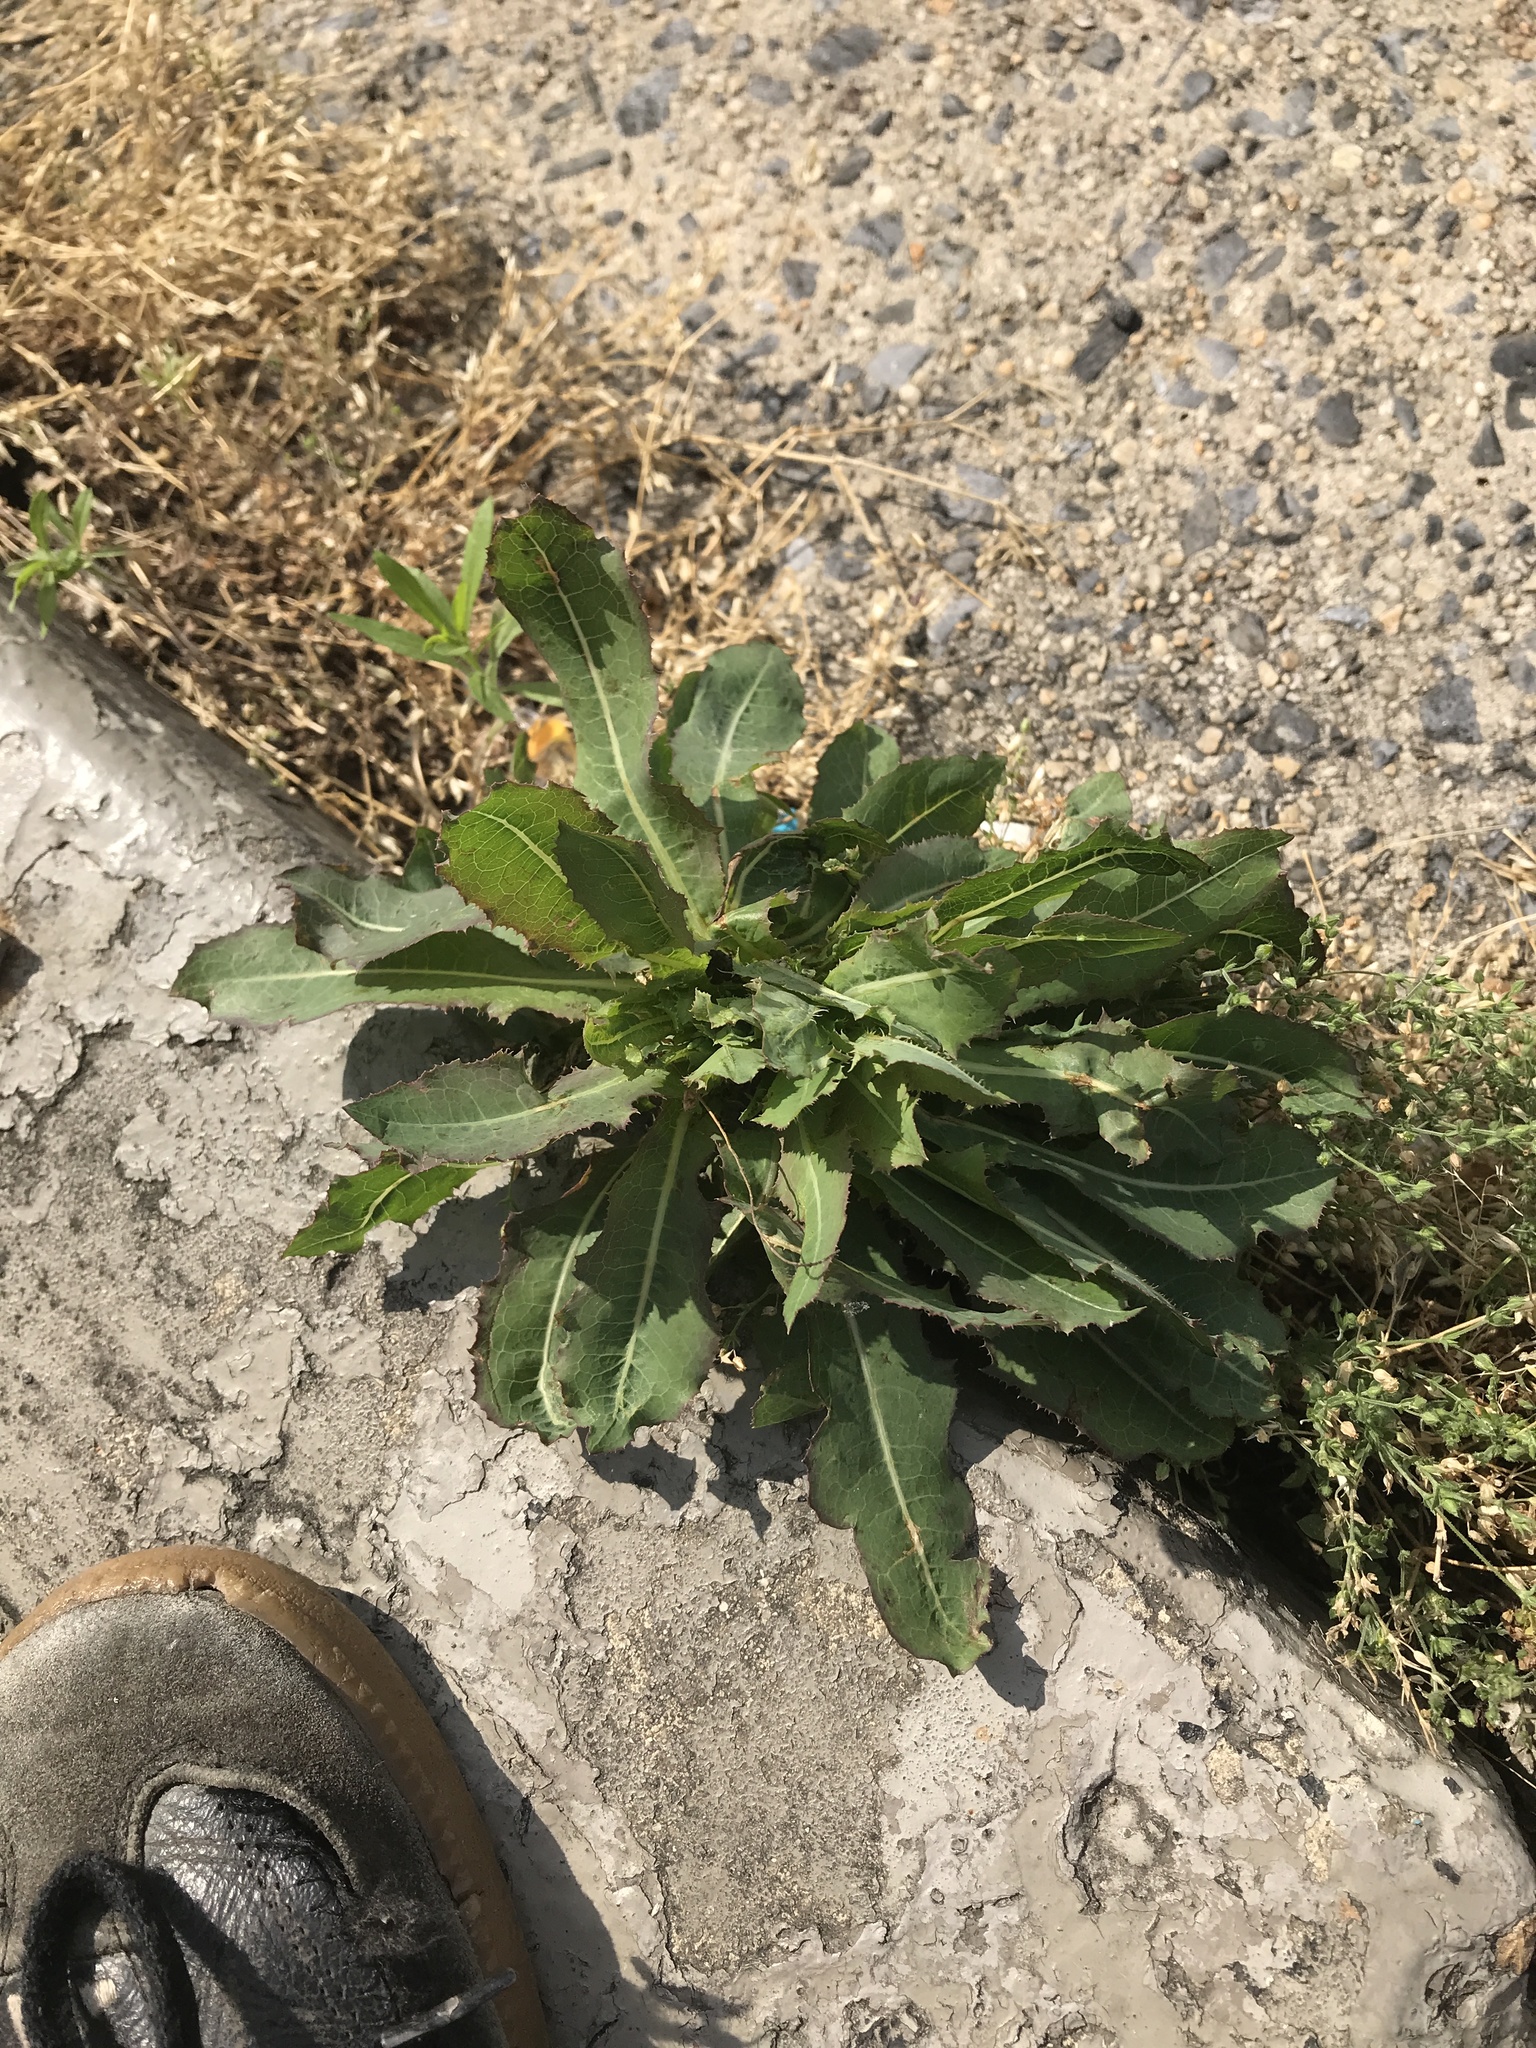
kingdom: Plantae
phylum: Tracheophyta
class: Magnoliopsida
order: Asterales
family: Asteraceae
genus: Lactuca
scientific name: Lactuca serriola
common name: Prickly lettuce
